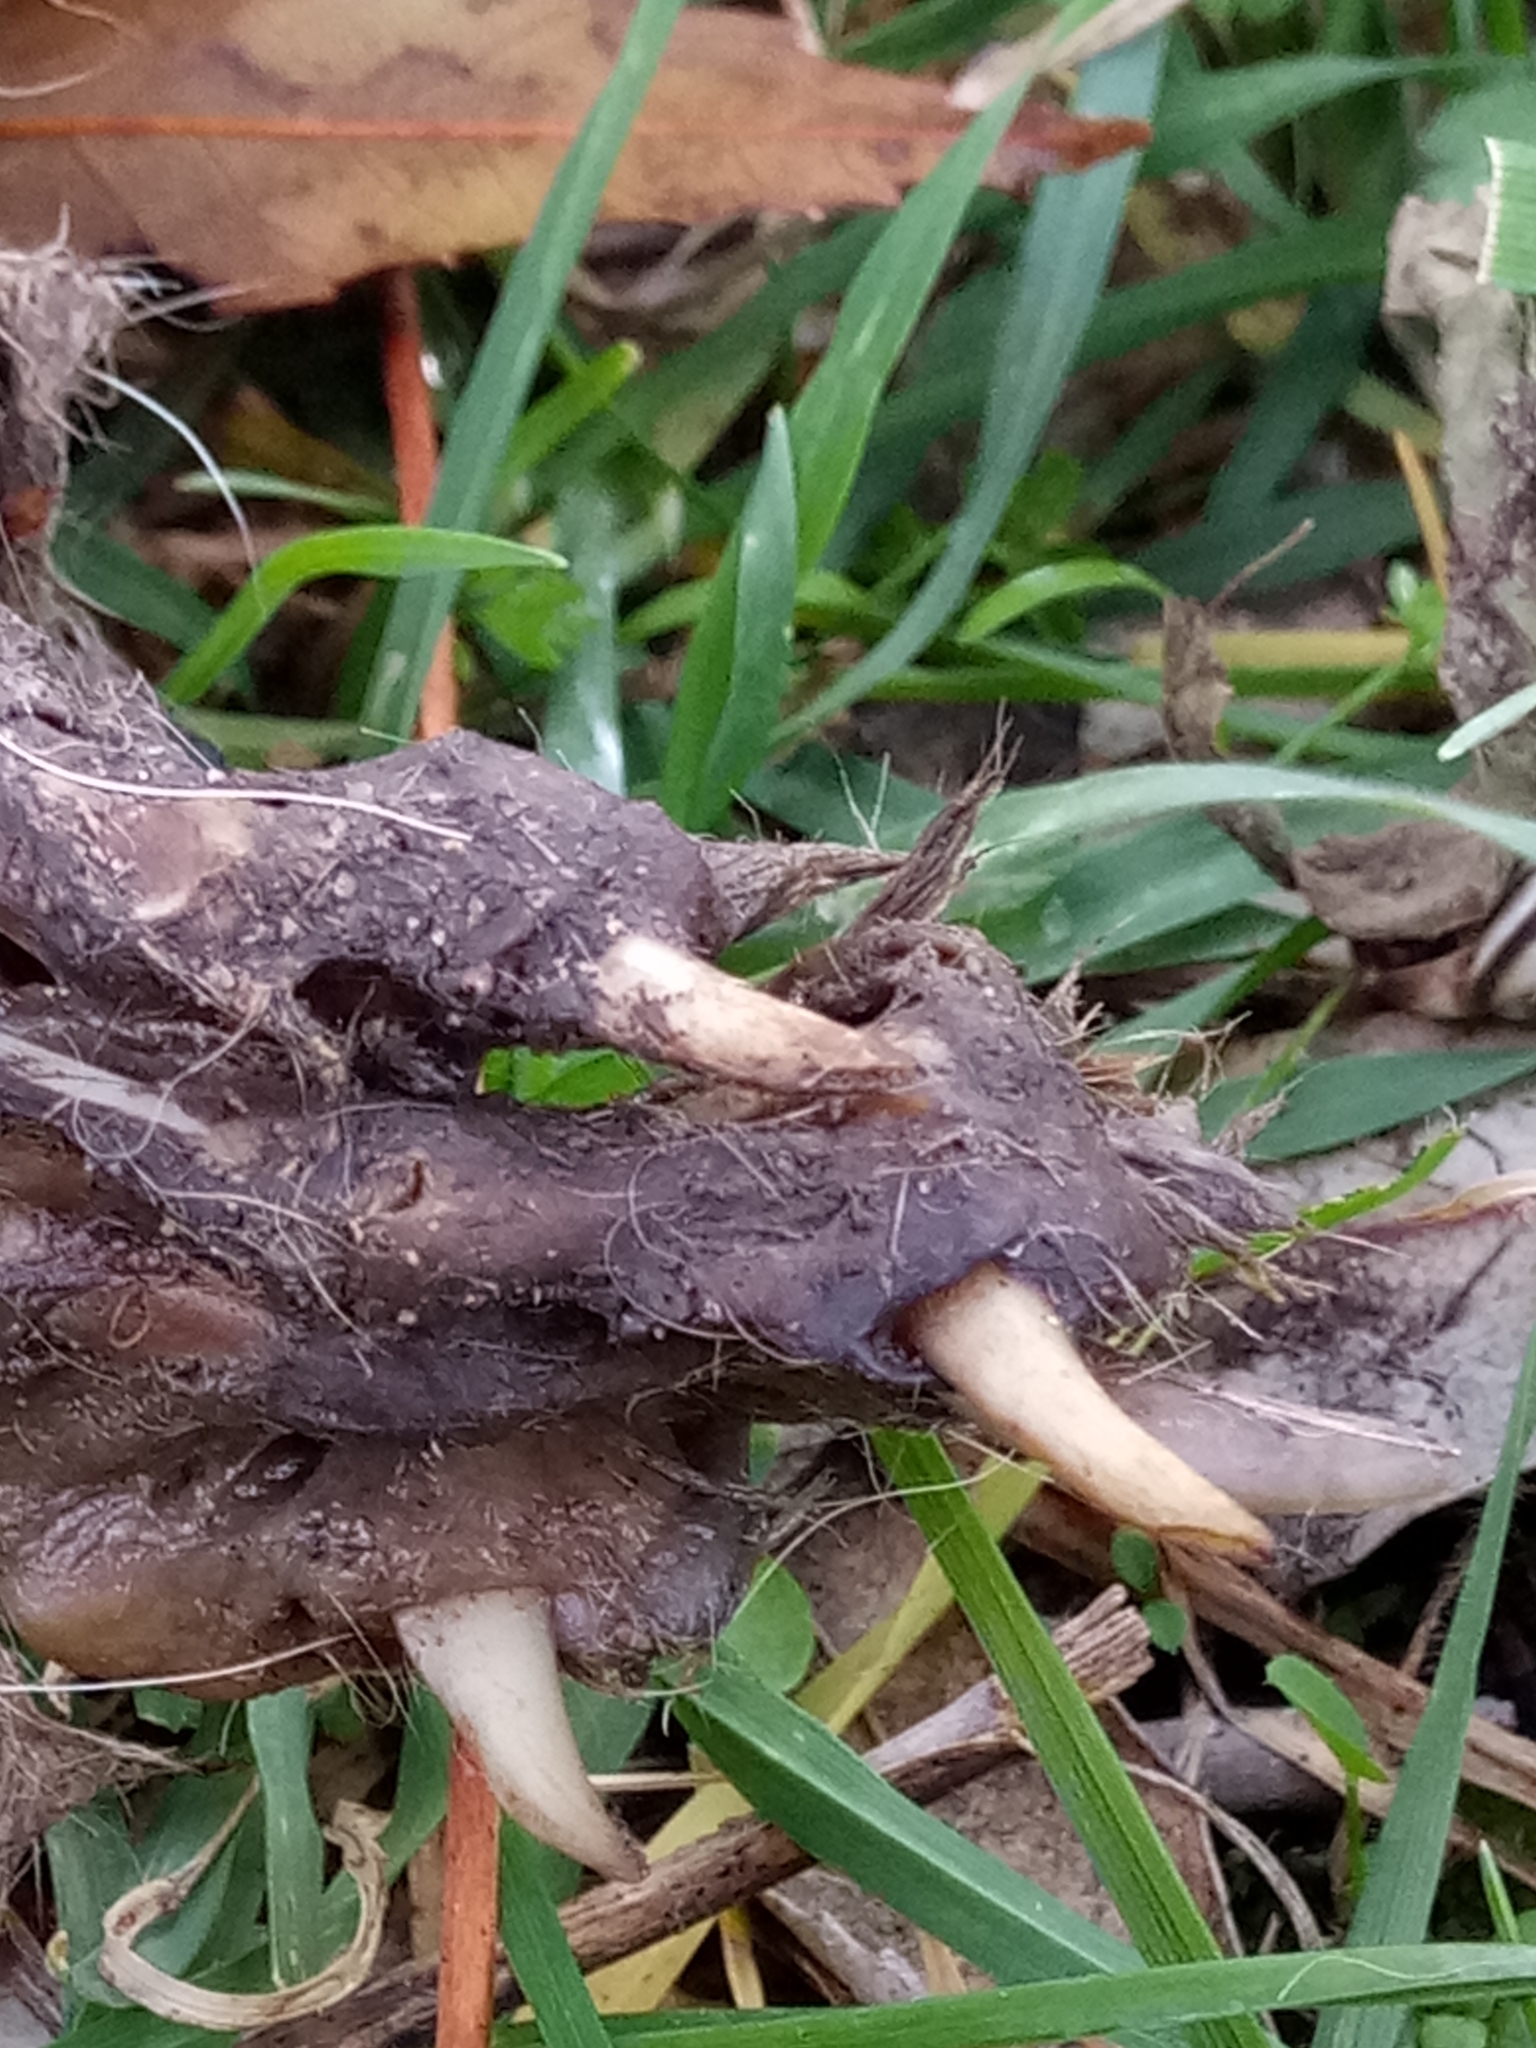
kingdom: Animalia
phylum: Chordata
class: Mammalia
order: Carnivora
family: Canidae
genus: Vulpes
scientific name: Vulpes vulpes
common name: Red fox
